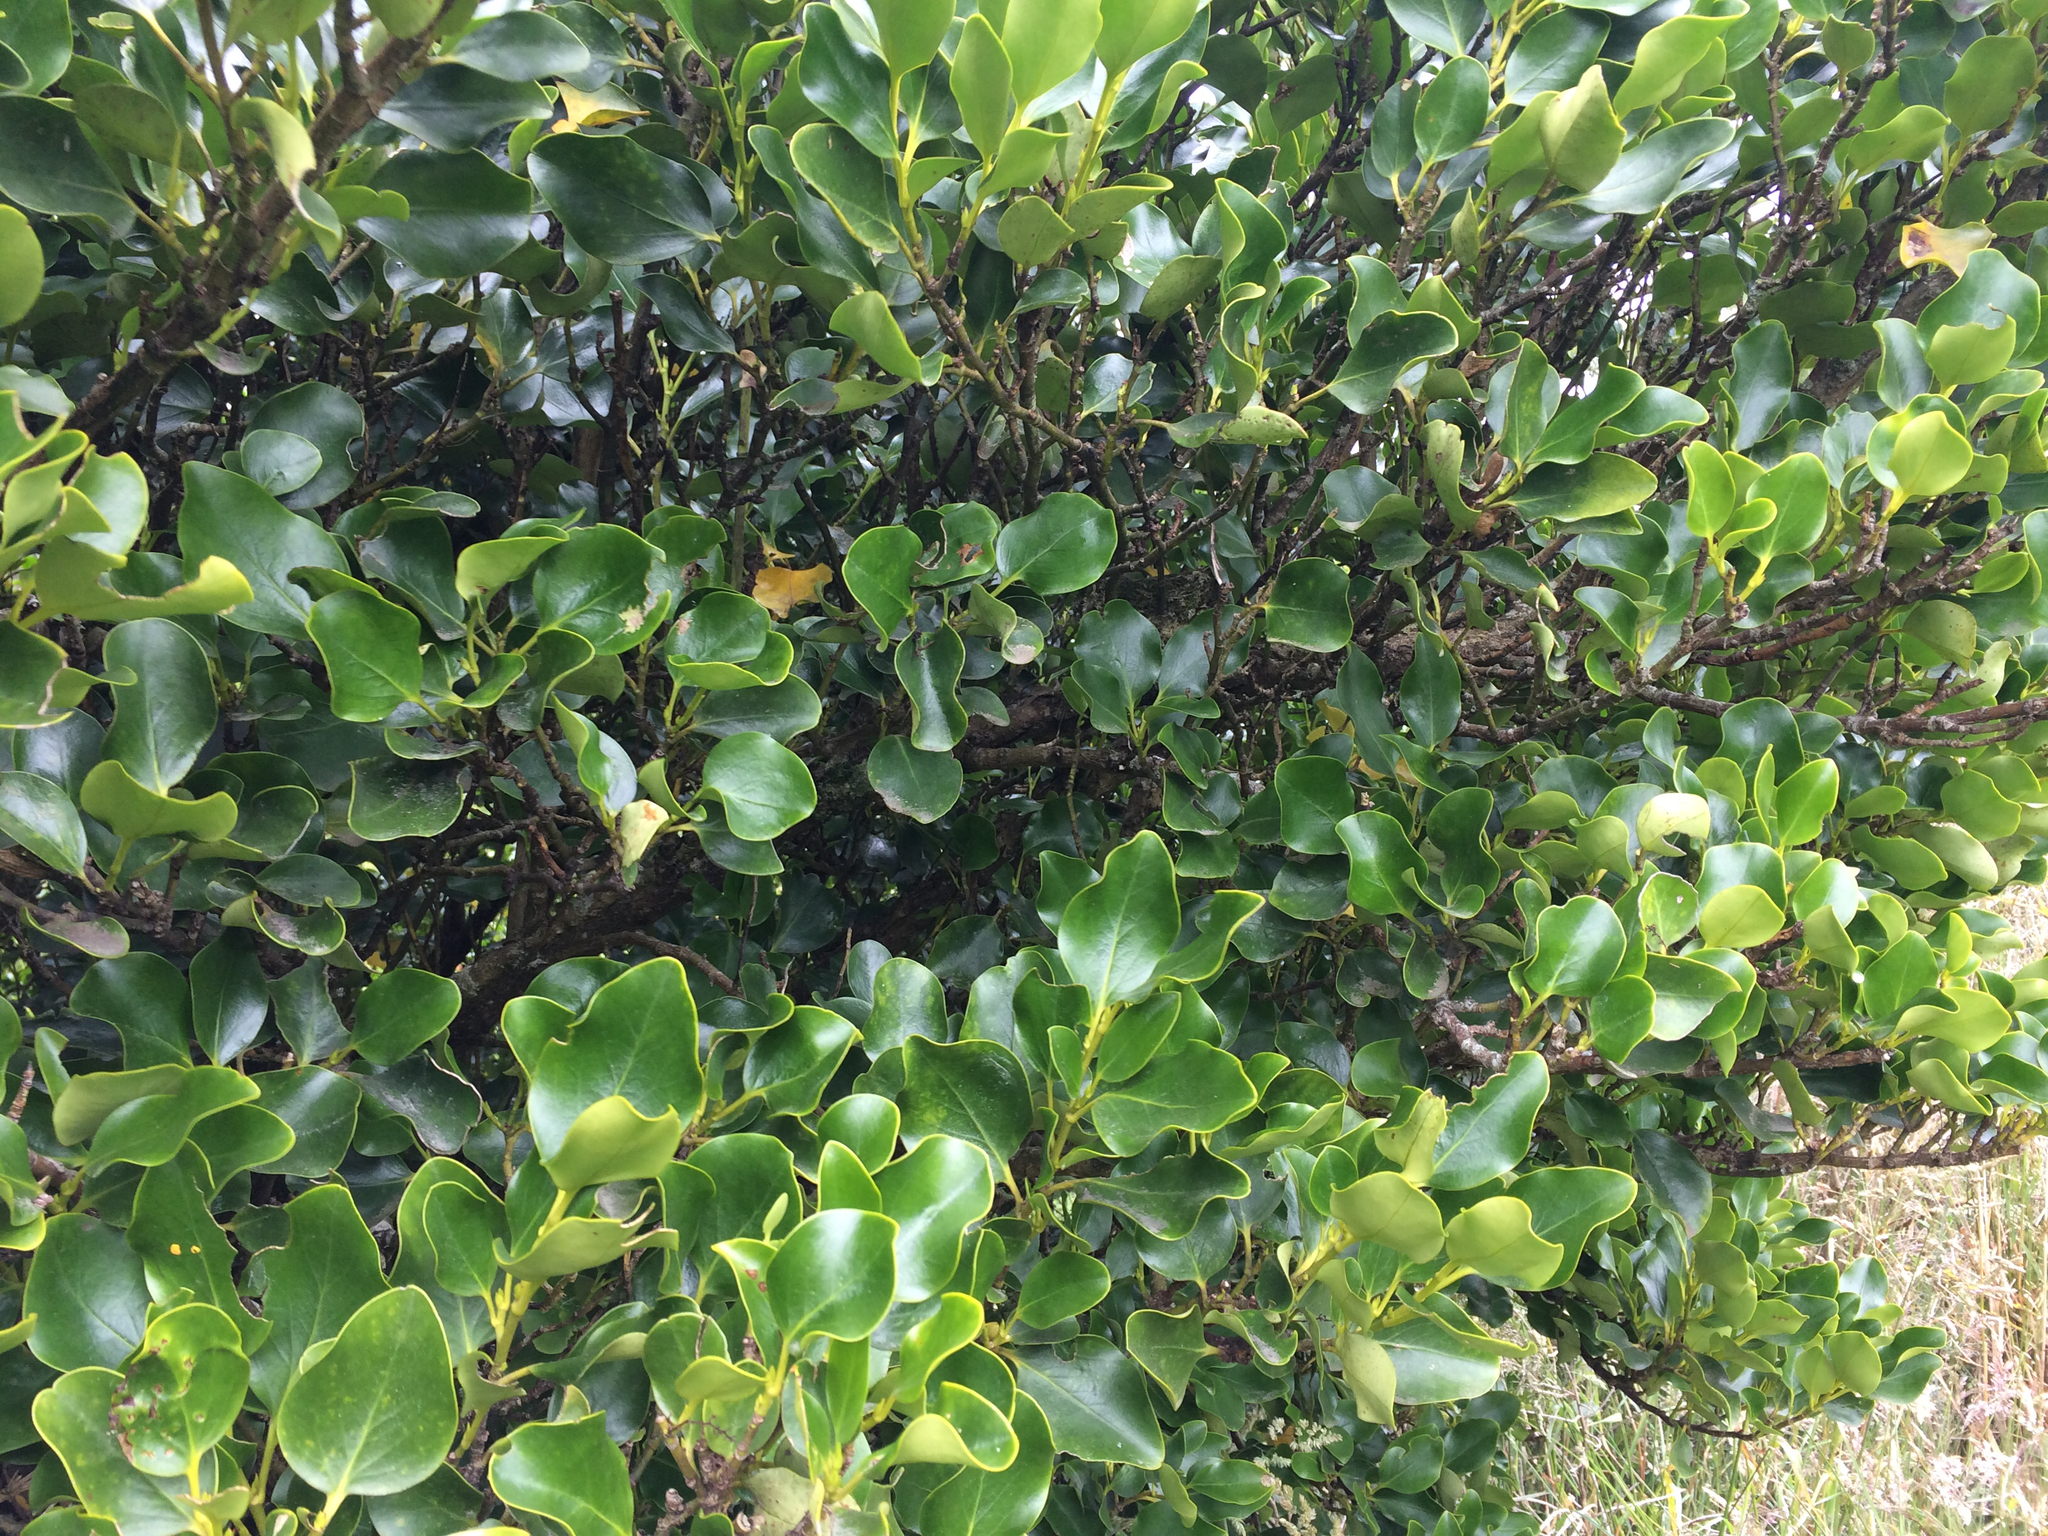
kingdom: Plantae
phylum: Tracheophyta
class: Magnoliopsida
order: Apiales
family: Griseliniaceae
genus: Griselinia
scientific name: Griselinia littoralis
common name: New zealand broadleaf
